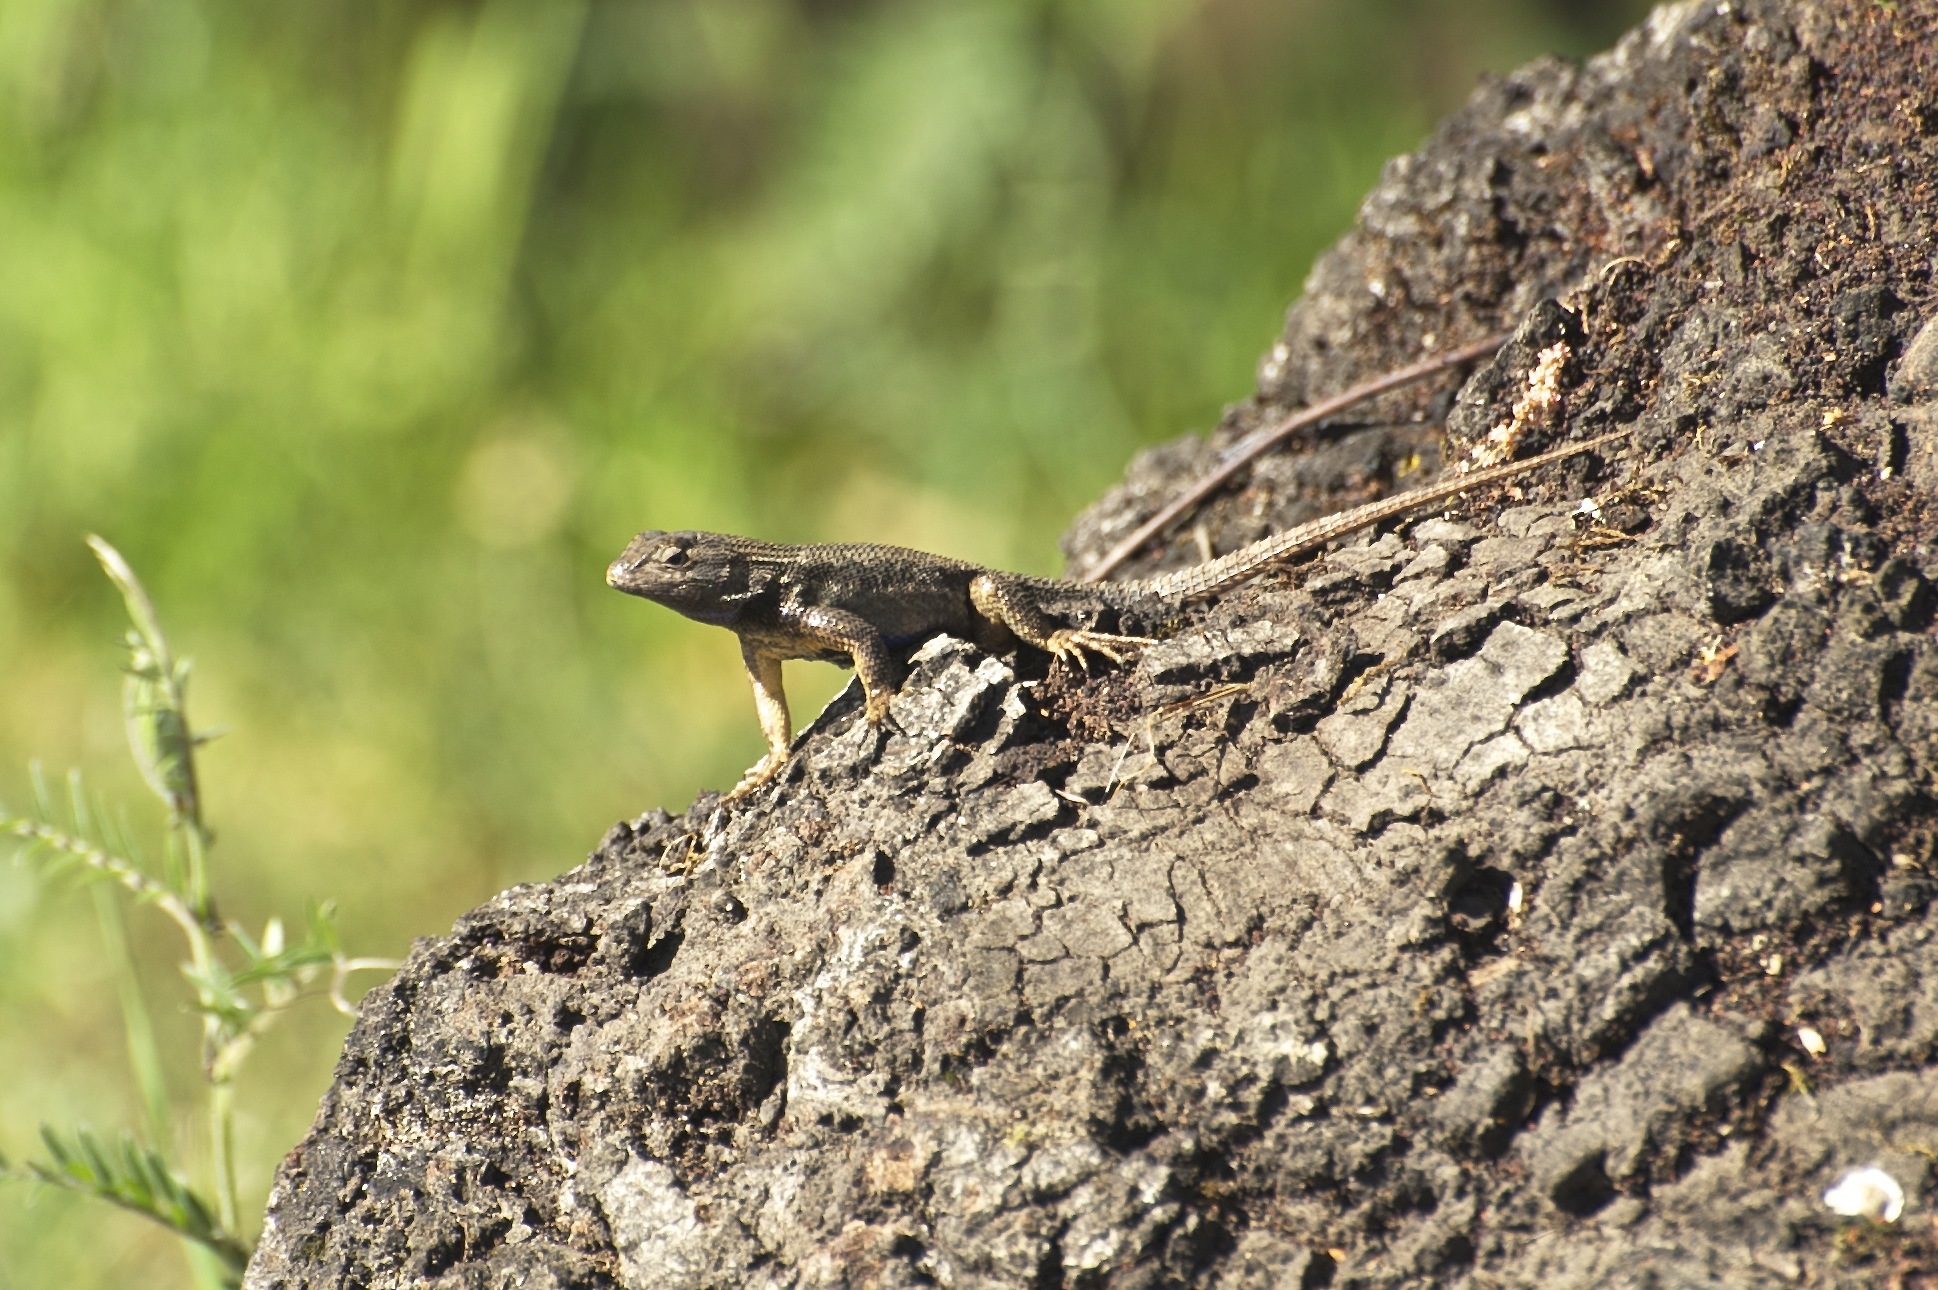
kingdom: Animalia
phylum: Chordata
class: Squamata
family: Phrynosomatidae
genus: Sceloporus
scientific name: Sceloporus occidentalis
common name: Western fence lizard
